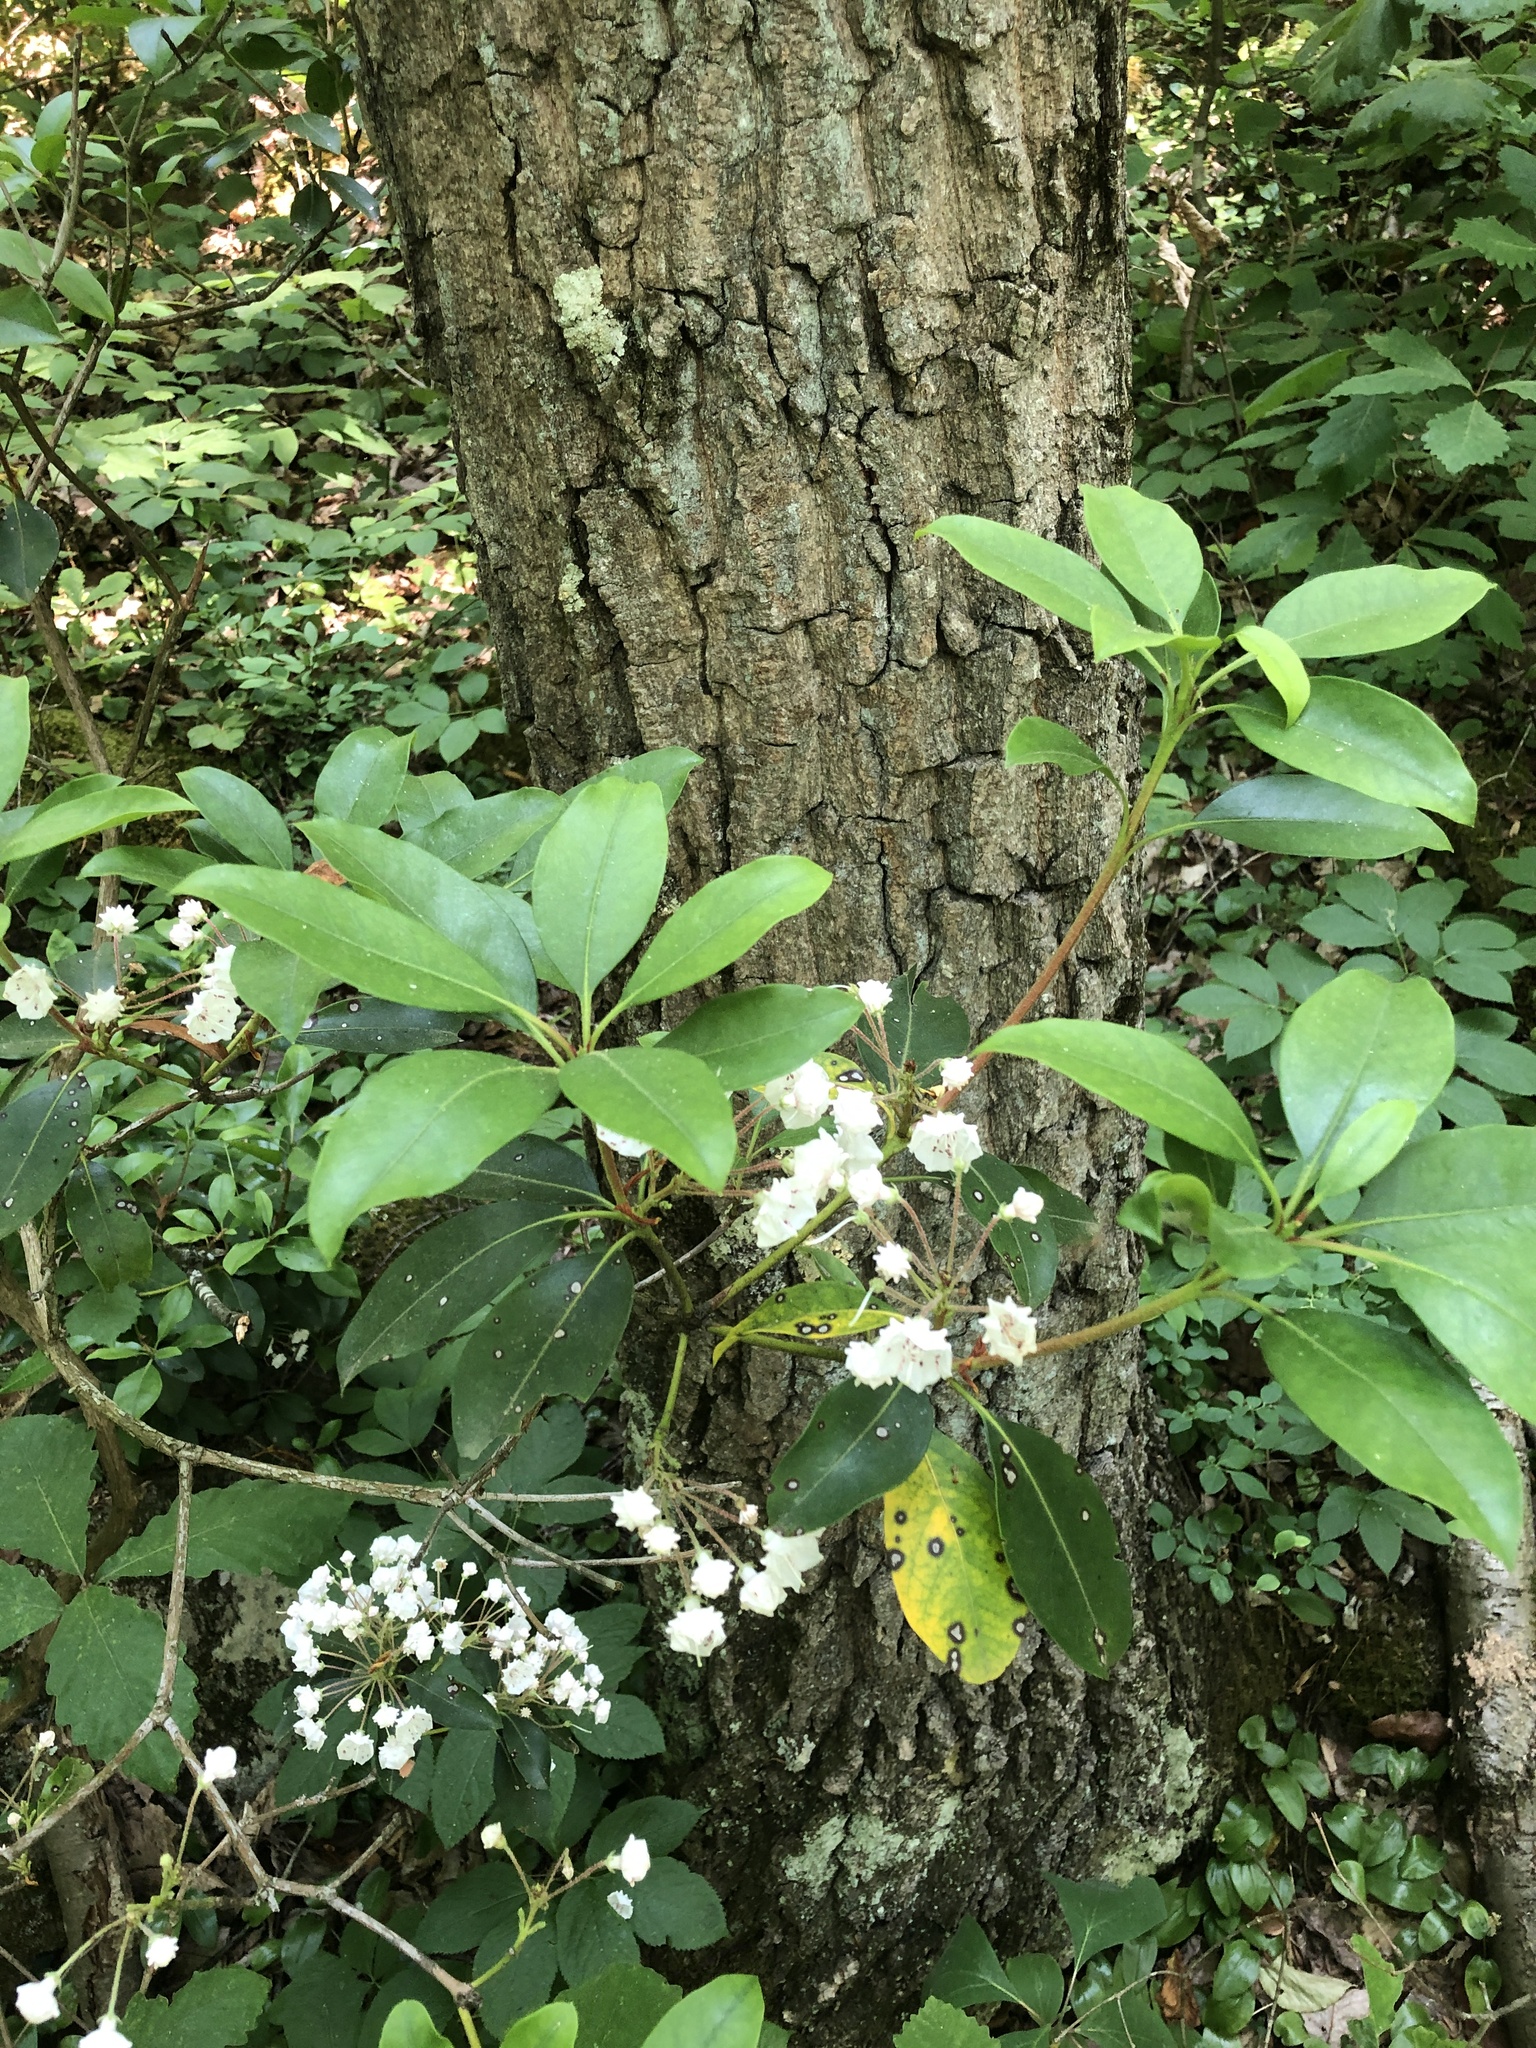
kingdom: Plantae
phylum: Tracheophyta
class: Magnoliopsida
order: Ericales
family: Ericaceae
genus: Kalmia
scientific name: Kalmia latifolia
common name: Mountain-laurel
